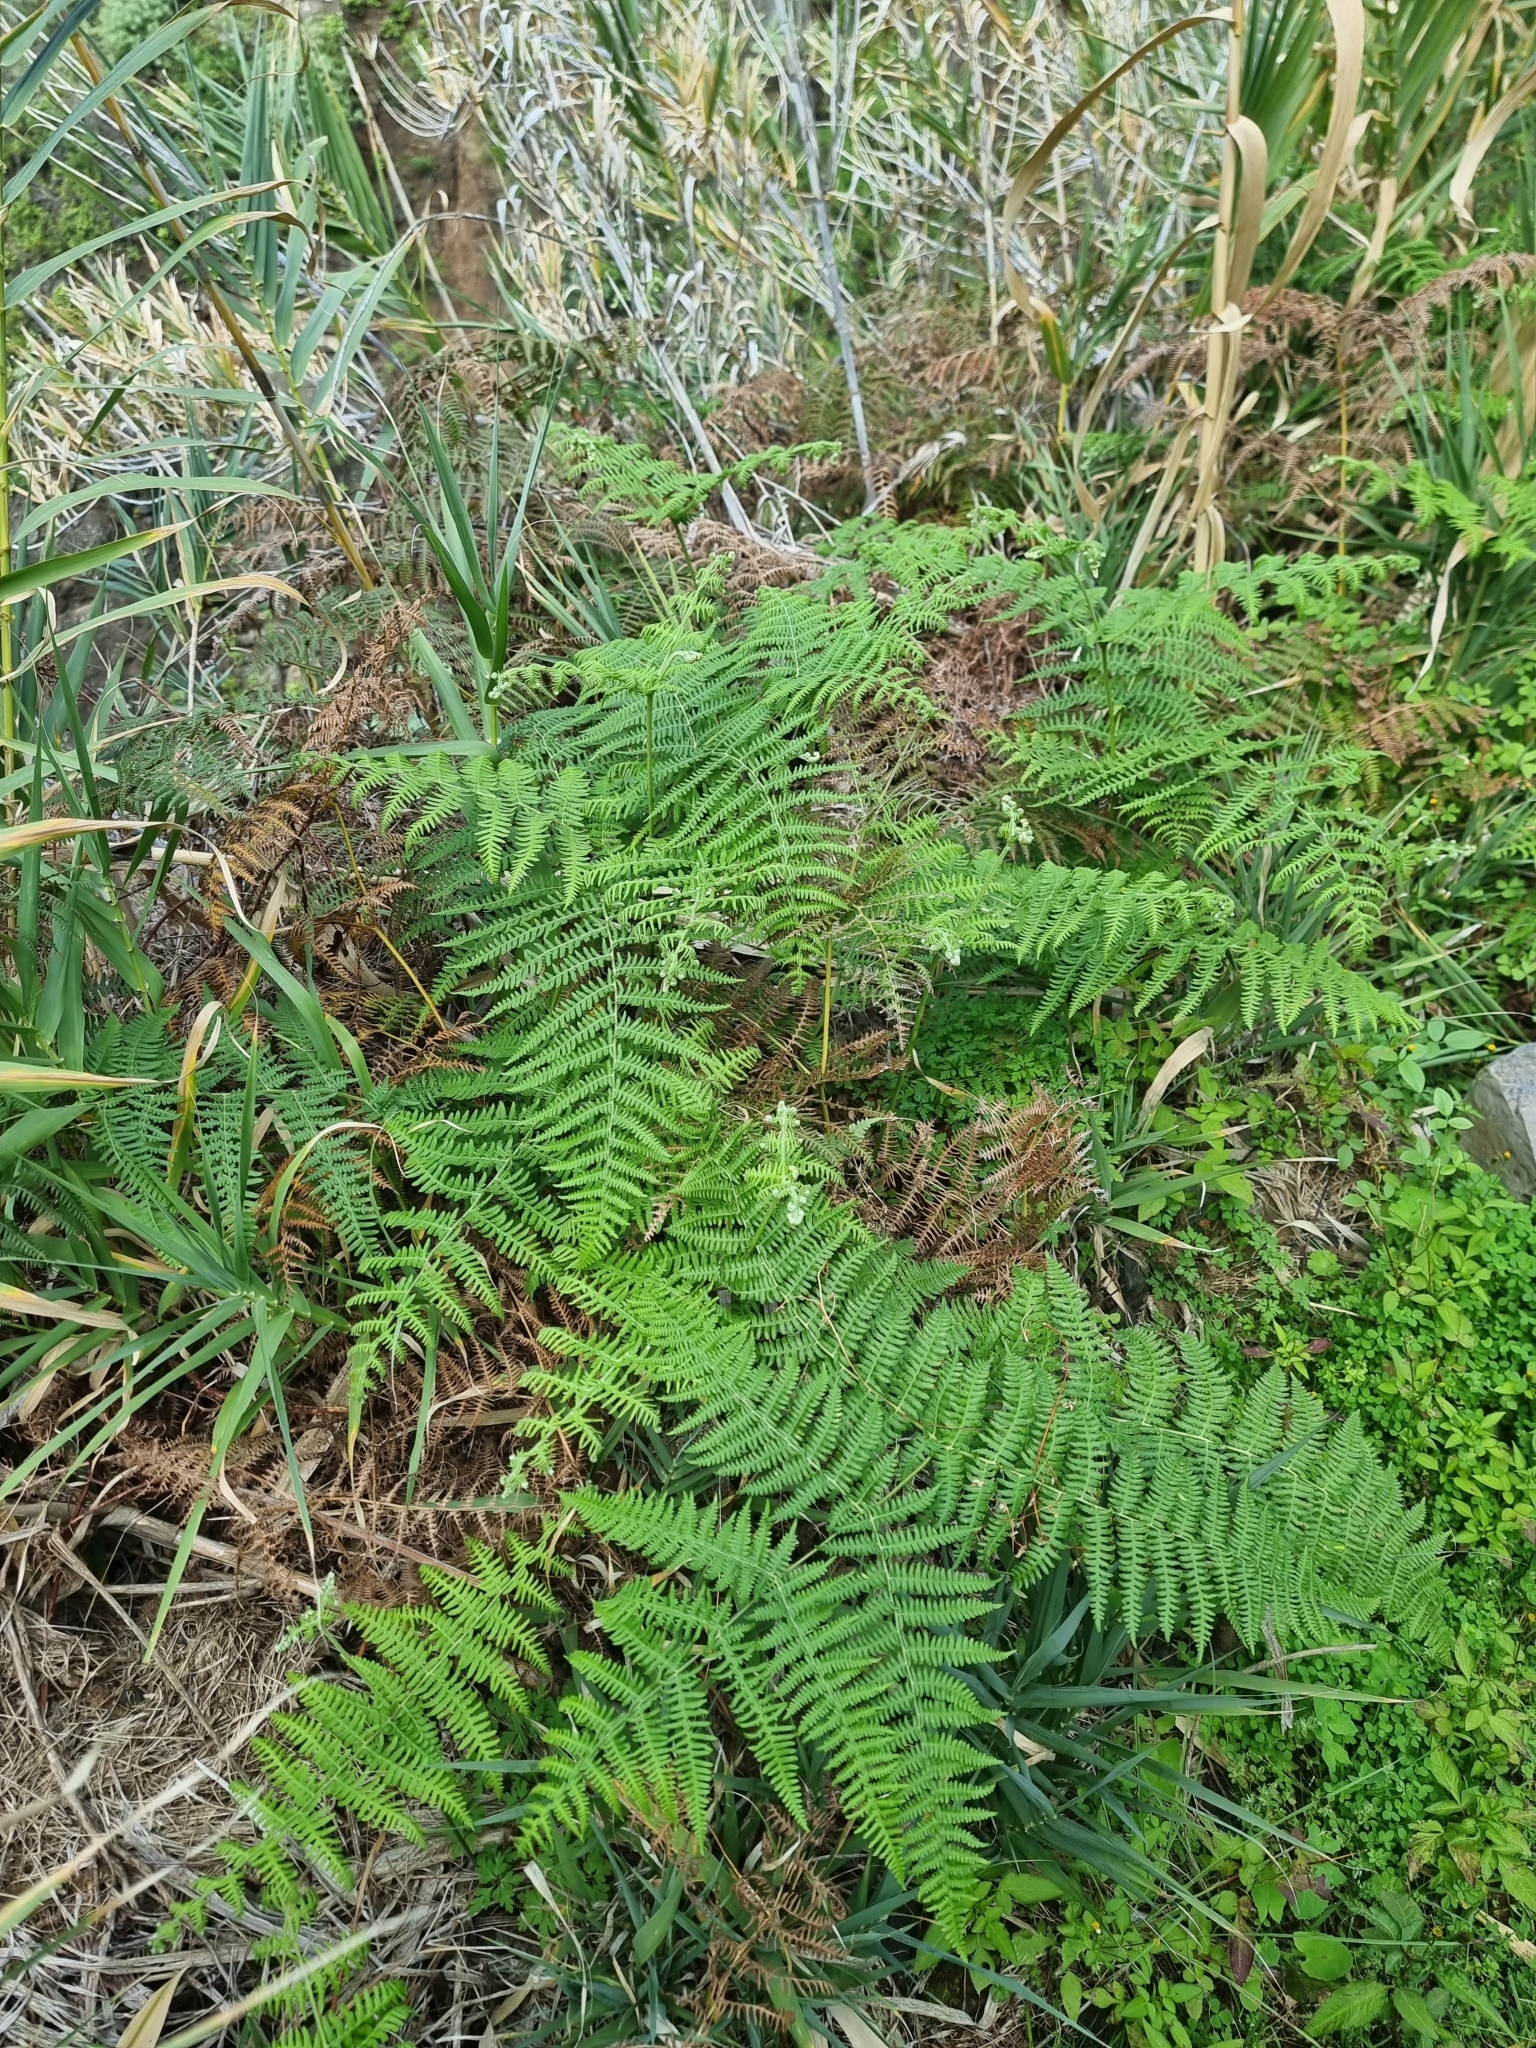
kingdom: Plantae
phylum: Tracheophyta
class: Polypodiopsida
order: Polypodiales
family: Dennstaedtiaceae
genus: Pteridium
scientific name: Pteridium aquilinum
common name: Bracken
